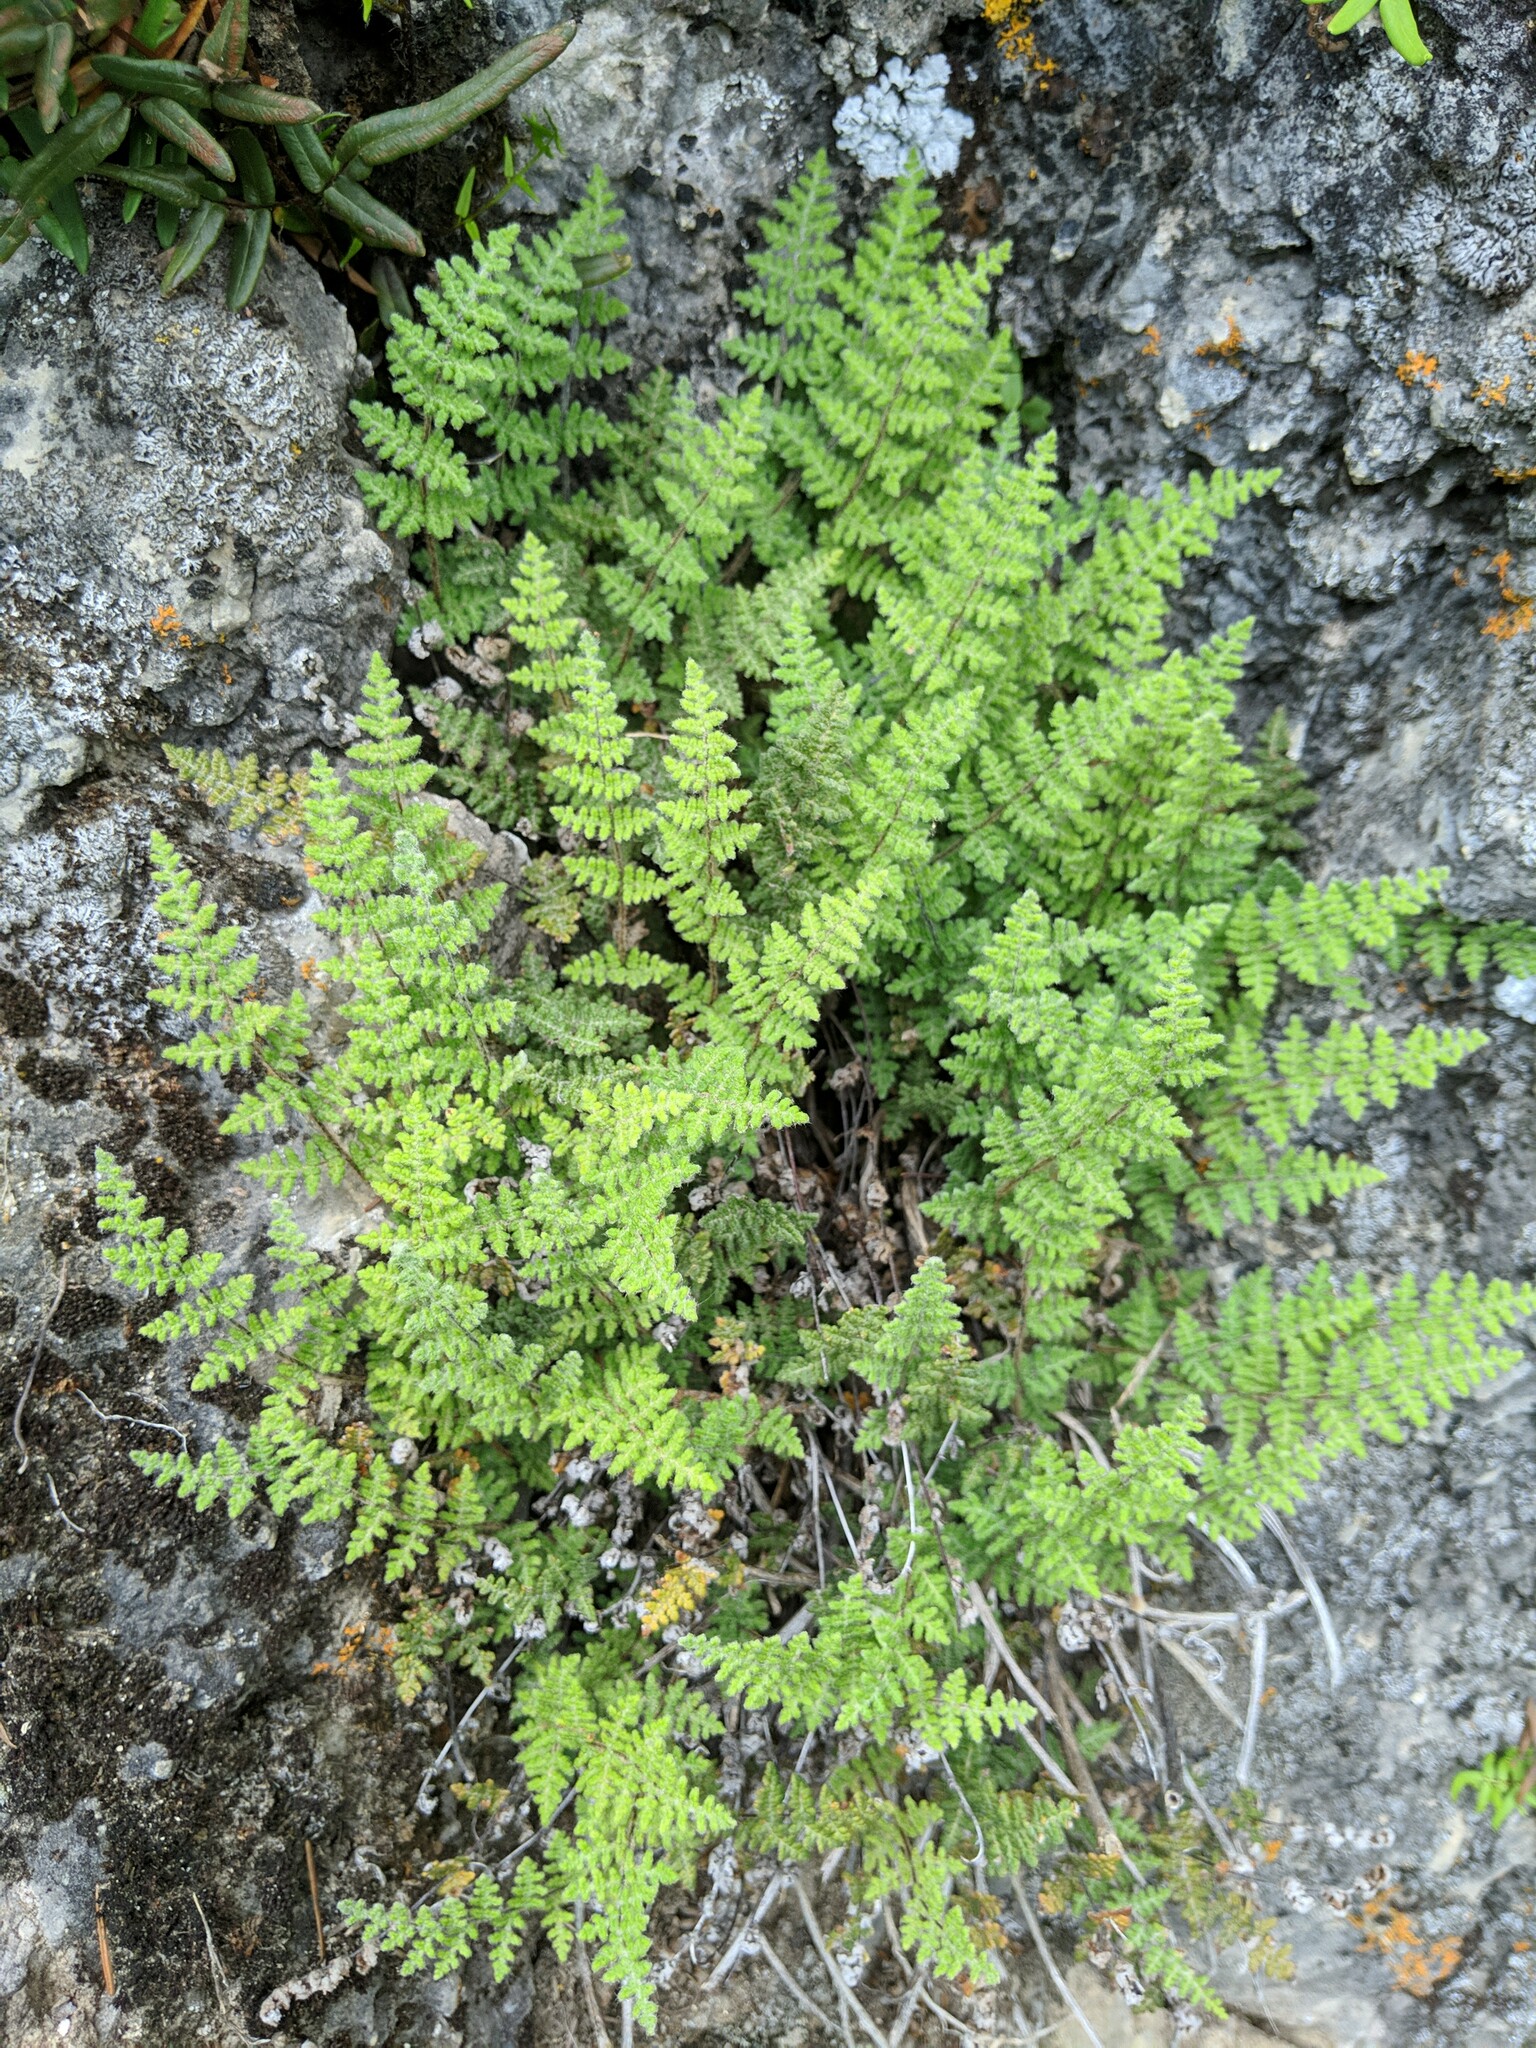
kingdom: Plantae
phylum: Tracheophyta
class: Polypodiopsida
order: Polypodiales
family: Pteridaceae
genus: Myriopteris
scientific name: Myriopteris gracilis
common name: Fee's lip fern
